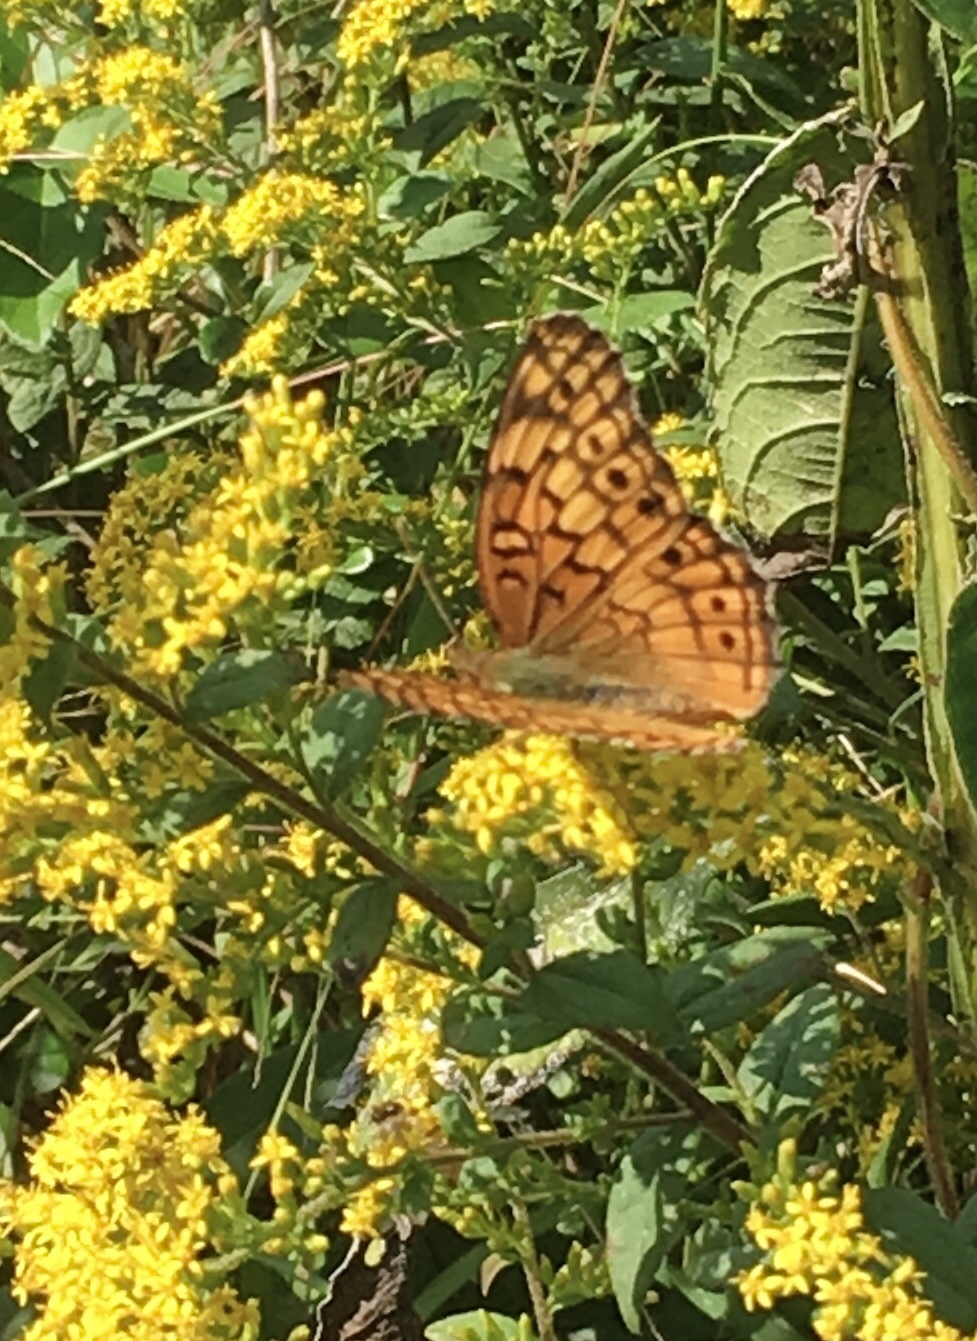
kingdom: Animalia
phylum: Arthropoda
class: Insecta
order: Lepidoptera
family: Nymphalidae
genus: Euptoieta
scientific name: Euptoieta claudia
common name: Variegated fritillary
